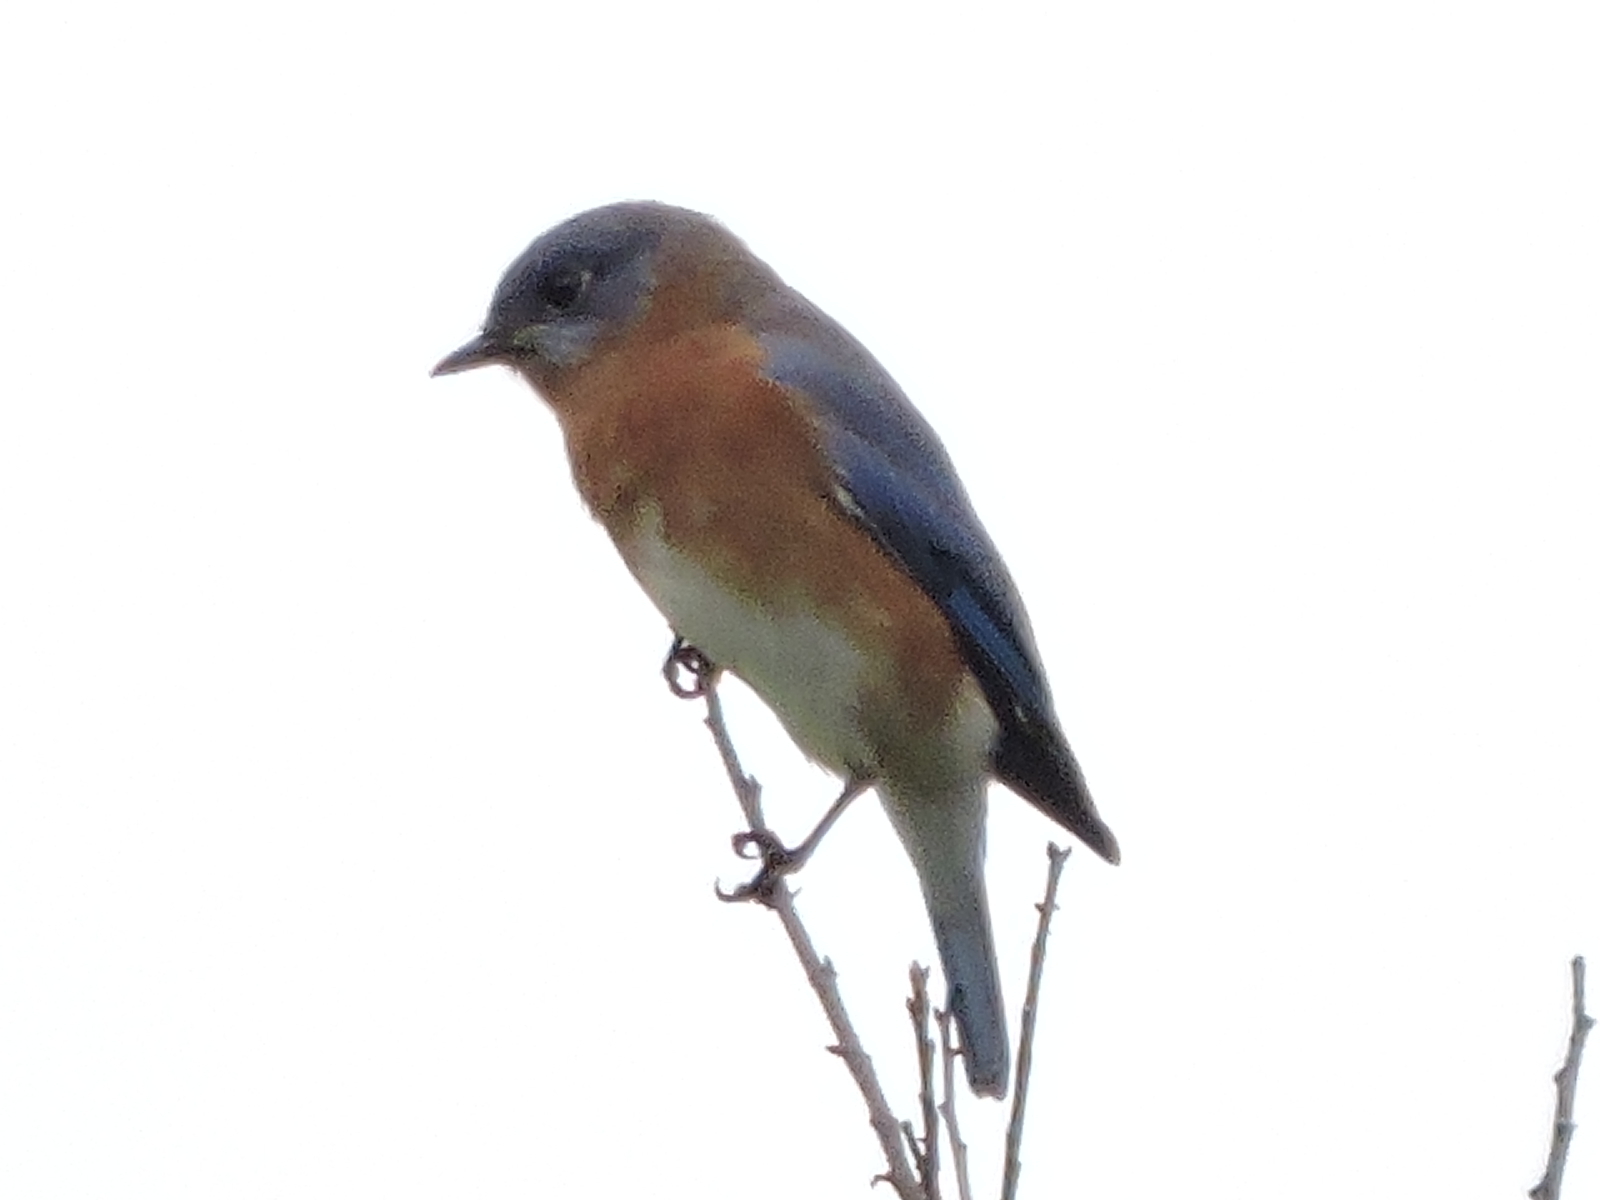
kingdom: Animalia
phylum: Chordata
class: Aves
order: Passeriformes
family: Turdidae
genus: Sialia
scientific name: Sialia sialis
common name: Eastern bluebird
